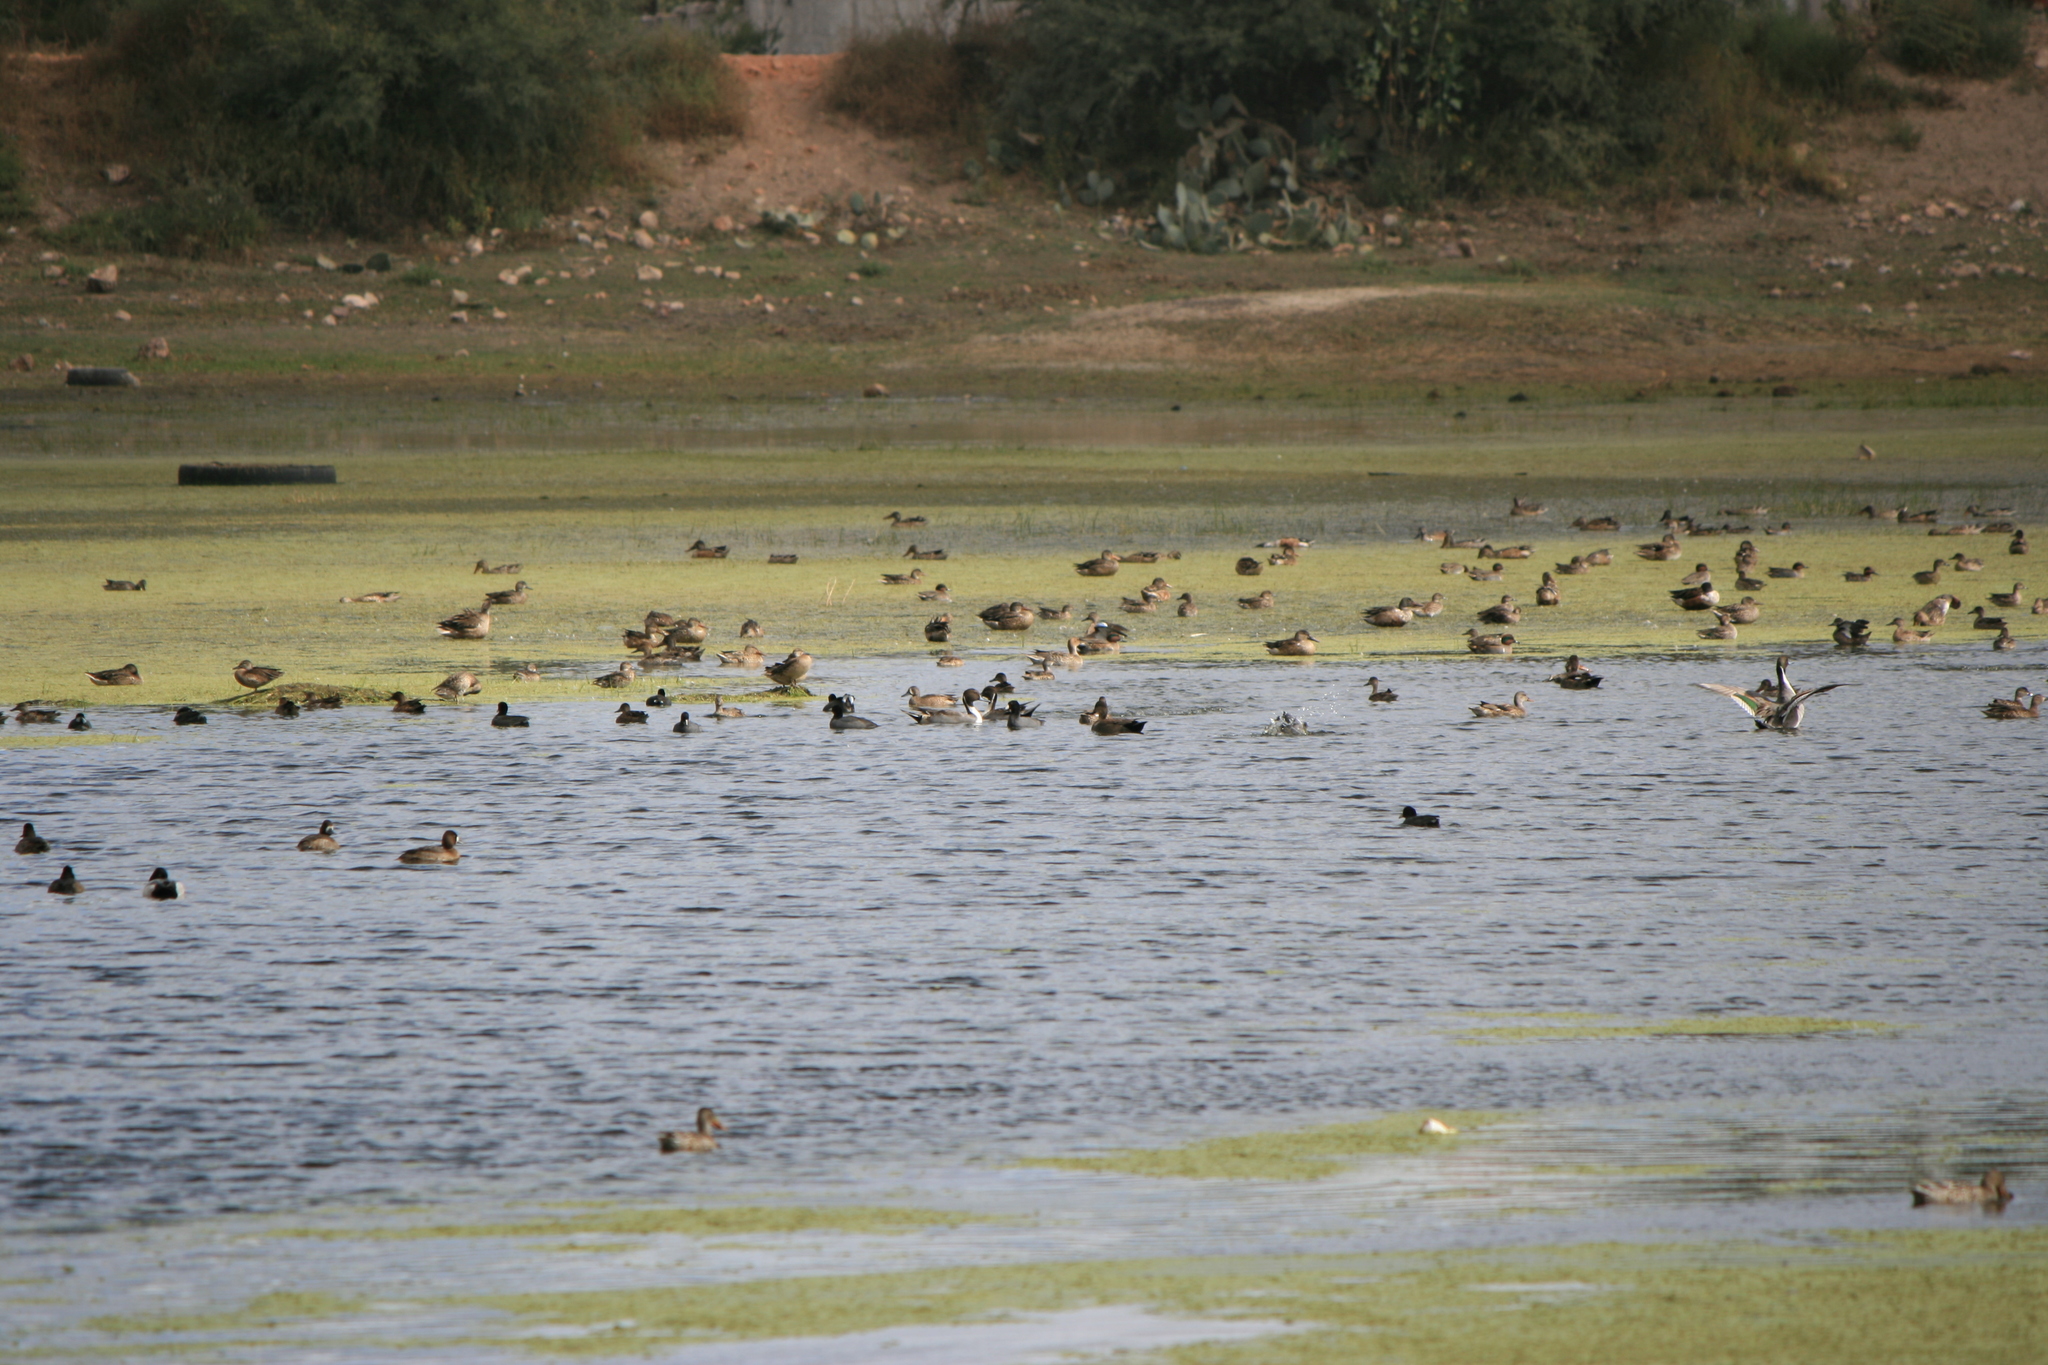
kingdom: Animalia
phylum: Chordata
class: Aves
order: Anseriformes
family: Anatidae
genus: Anas
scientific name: Anas acuta
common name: Northern pintail
